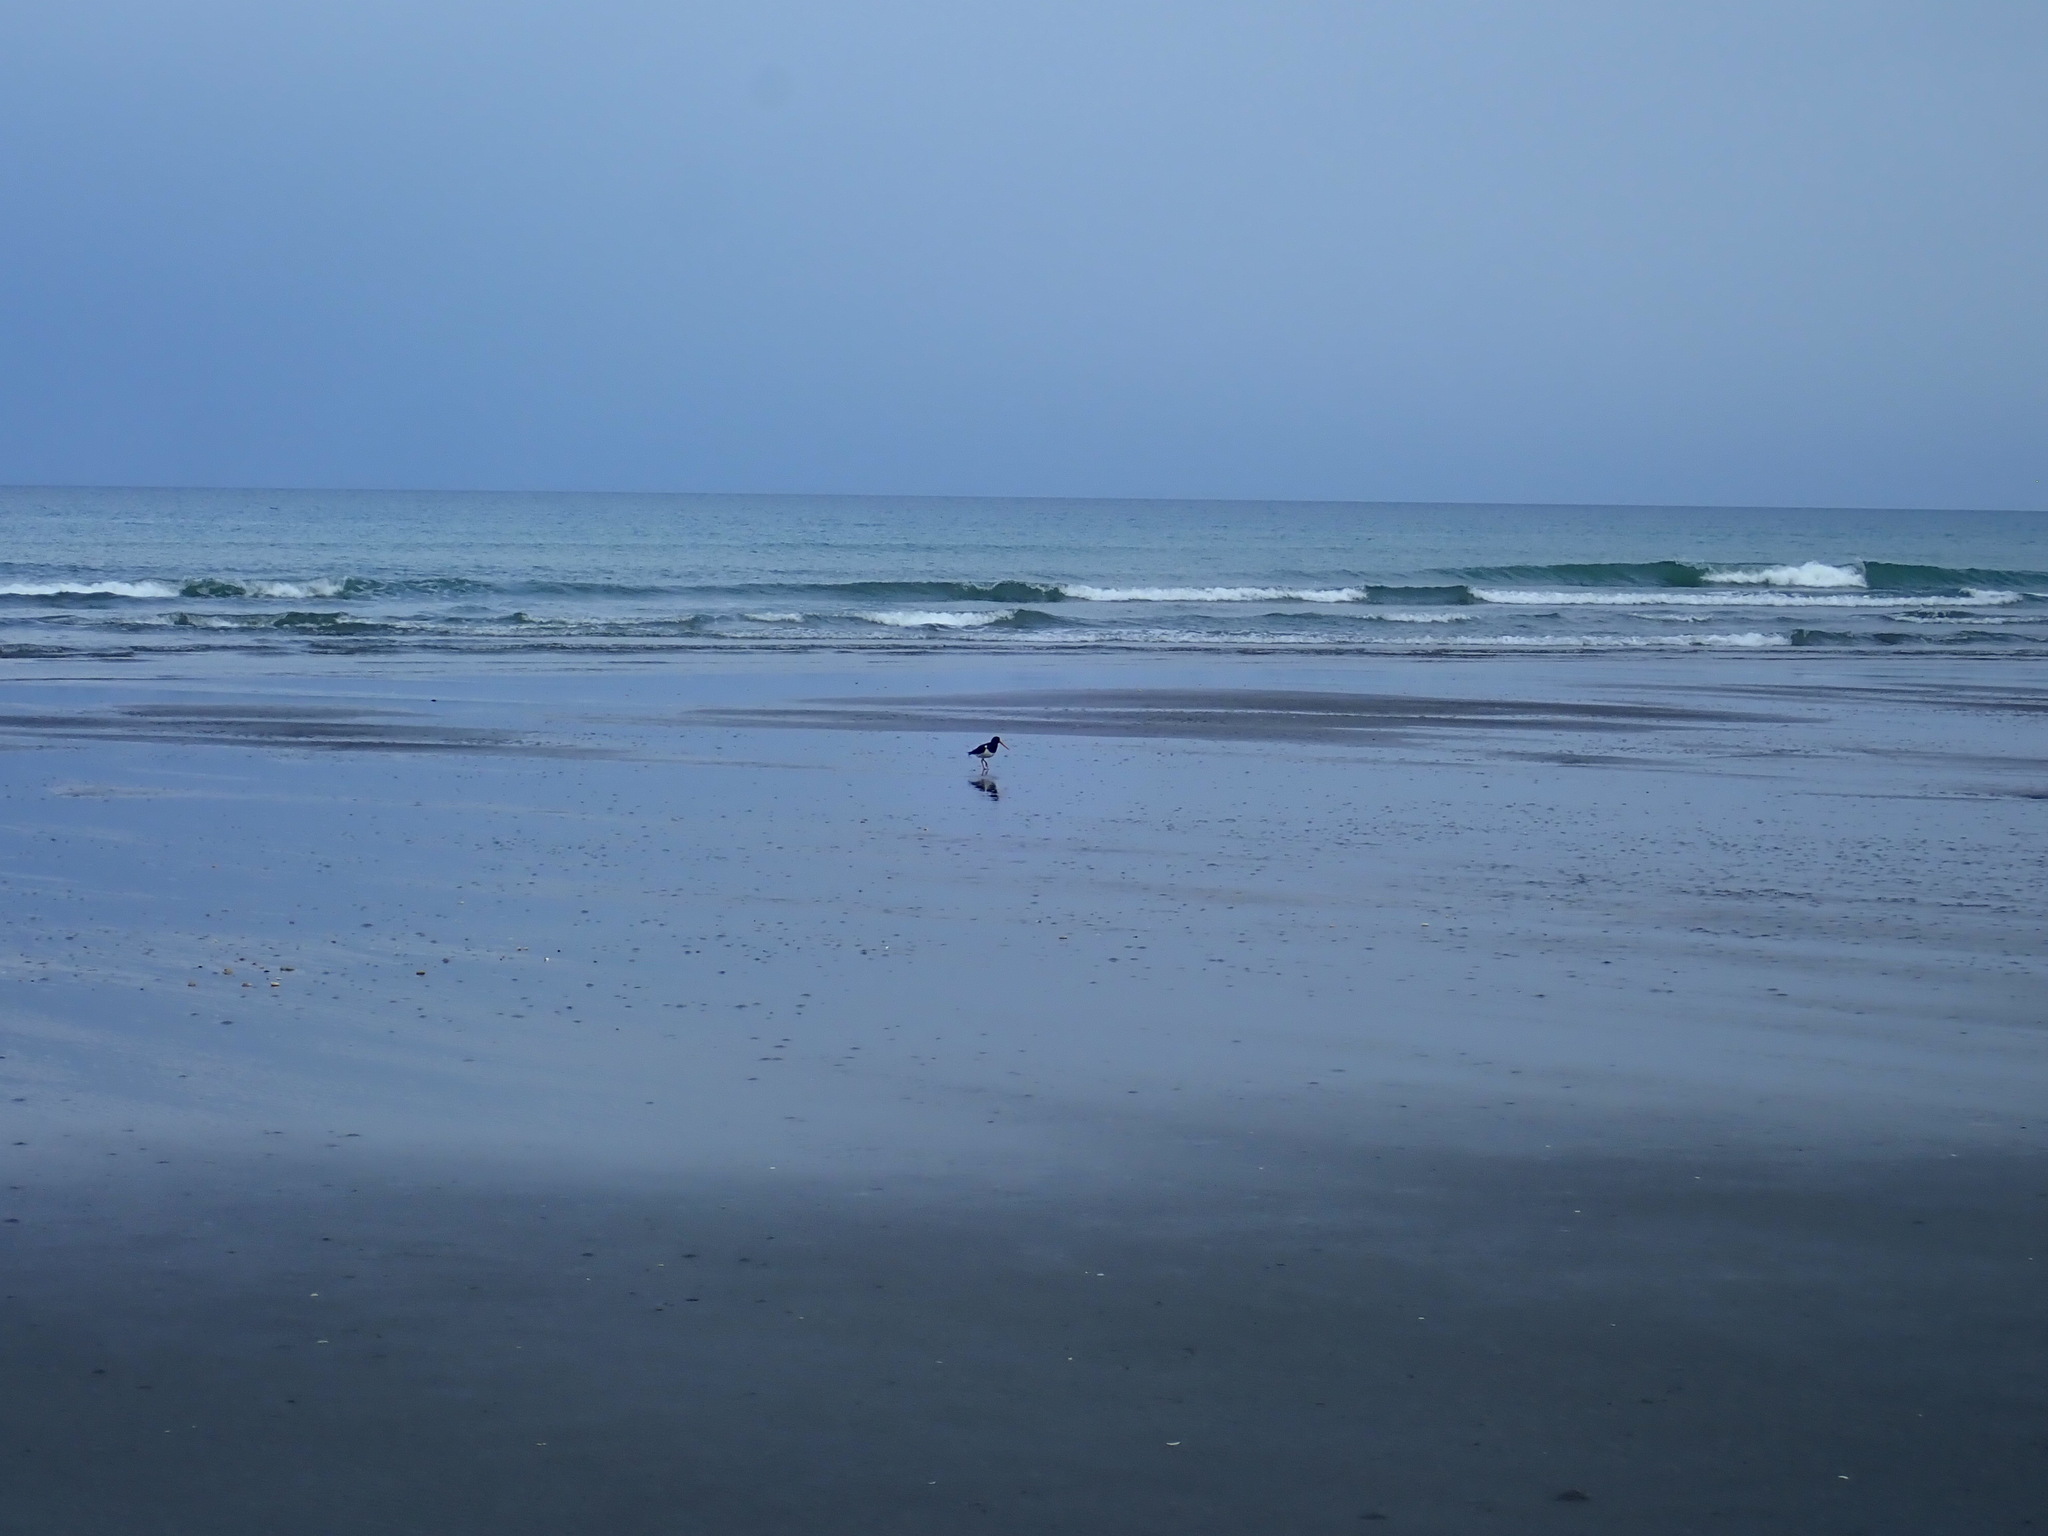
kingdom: Animalia
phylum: Chordata
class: Aves
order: Charadriiformes
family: Haematopodidae
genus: Haematopus
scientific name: Haematopus finschi
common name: South island oystercatcher
